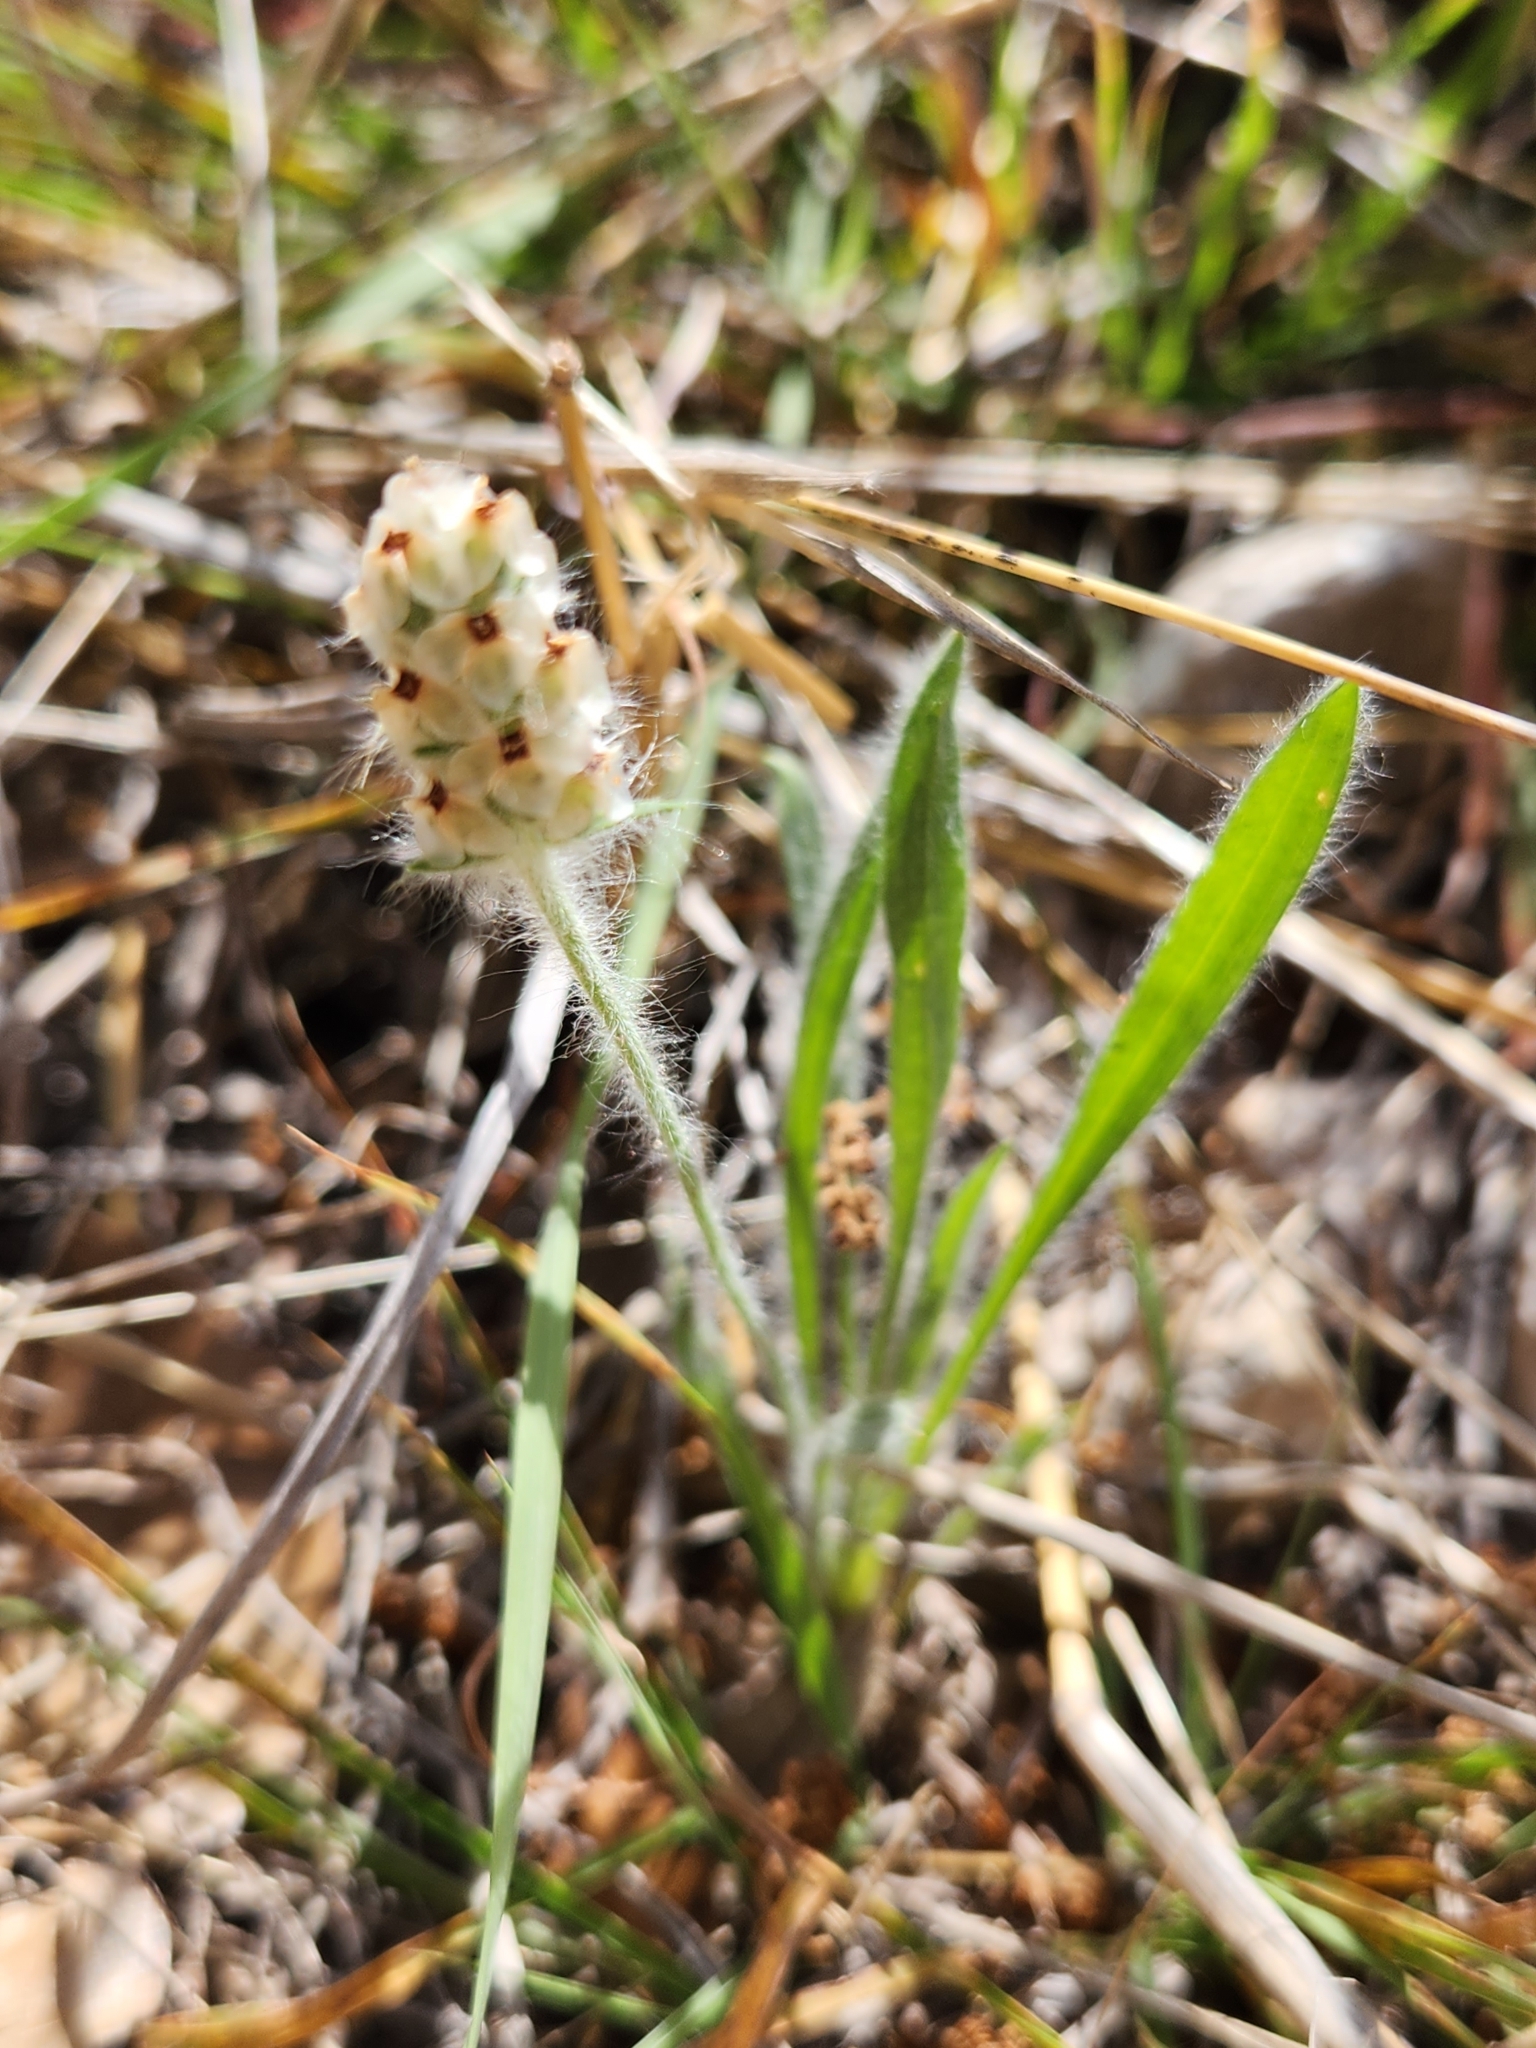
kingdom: Plantae
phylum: Tracheophyta
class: Magnoliopsida
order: Lamiales
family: Plantaginaceae
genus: Plantago
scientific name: Plantago helleri
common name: Heller's plantain
